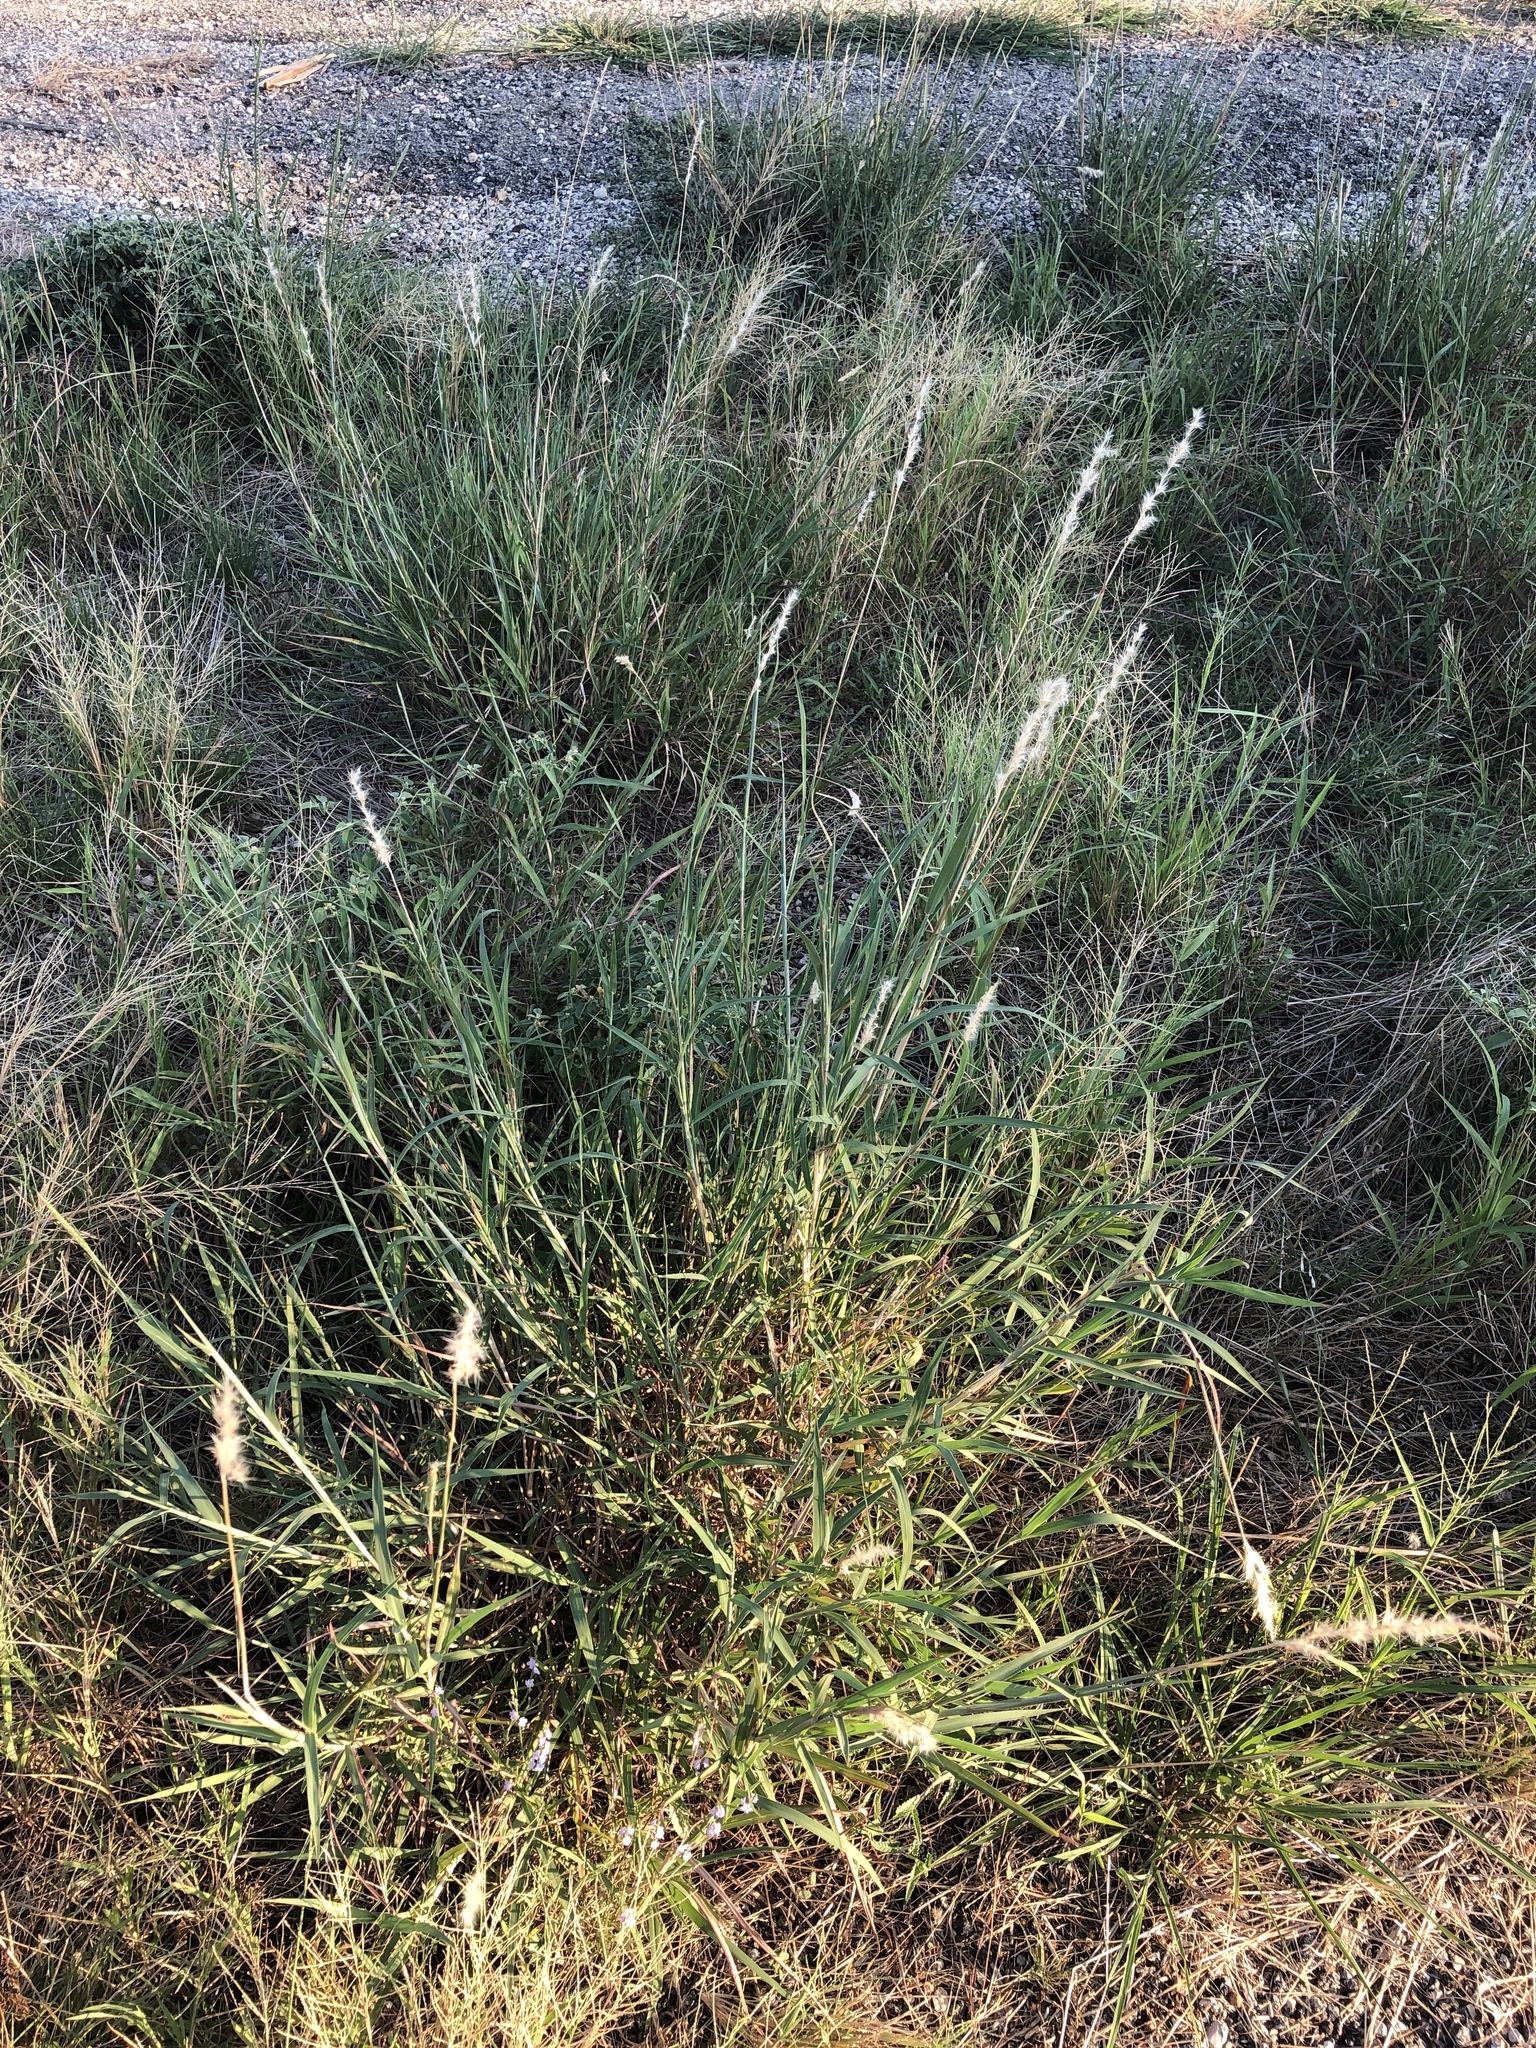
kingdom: Plantae
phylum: Tracheophyta
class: Liliopsida
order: Poales
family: Poaceae
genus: Bothriochloa
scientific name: Bothriochloa torreyana
